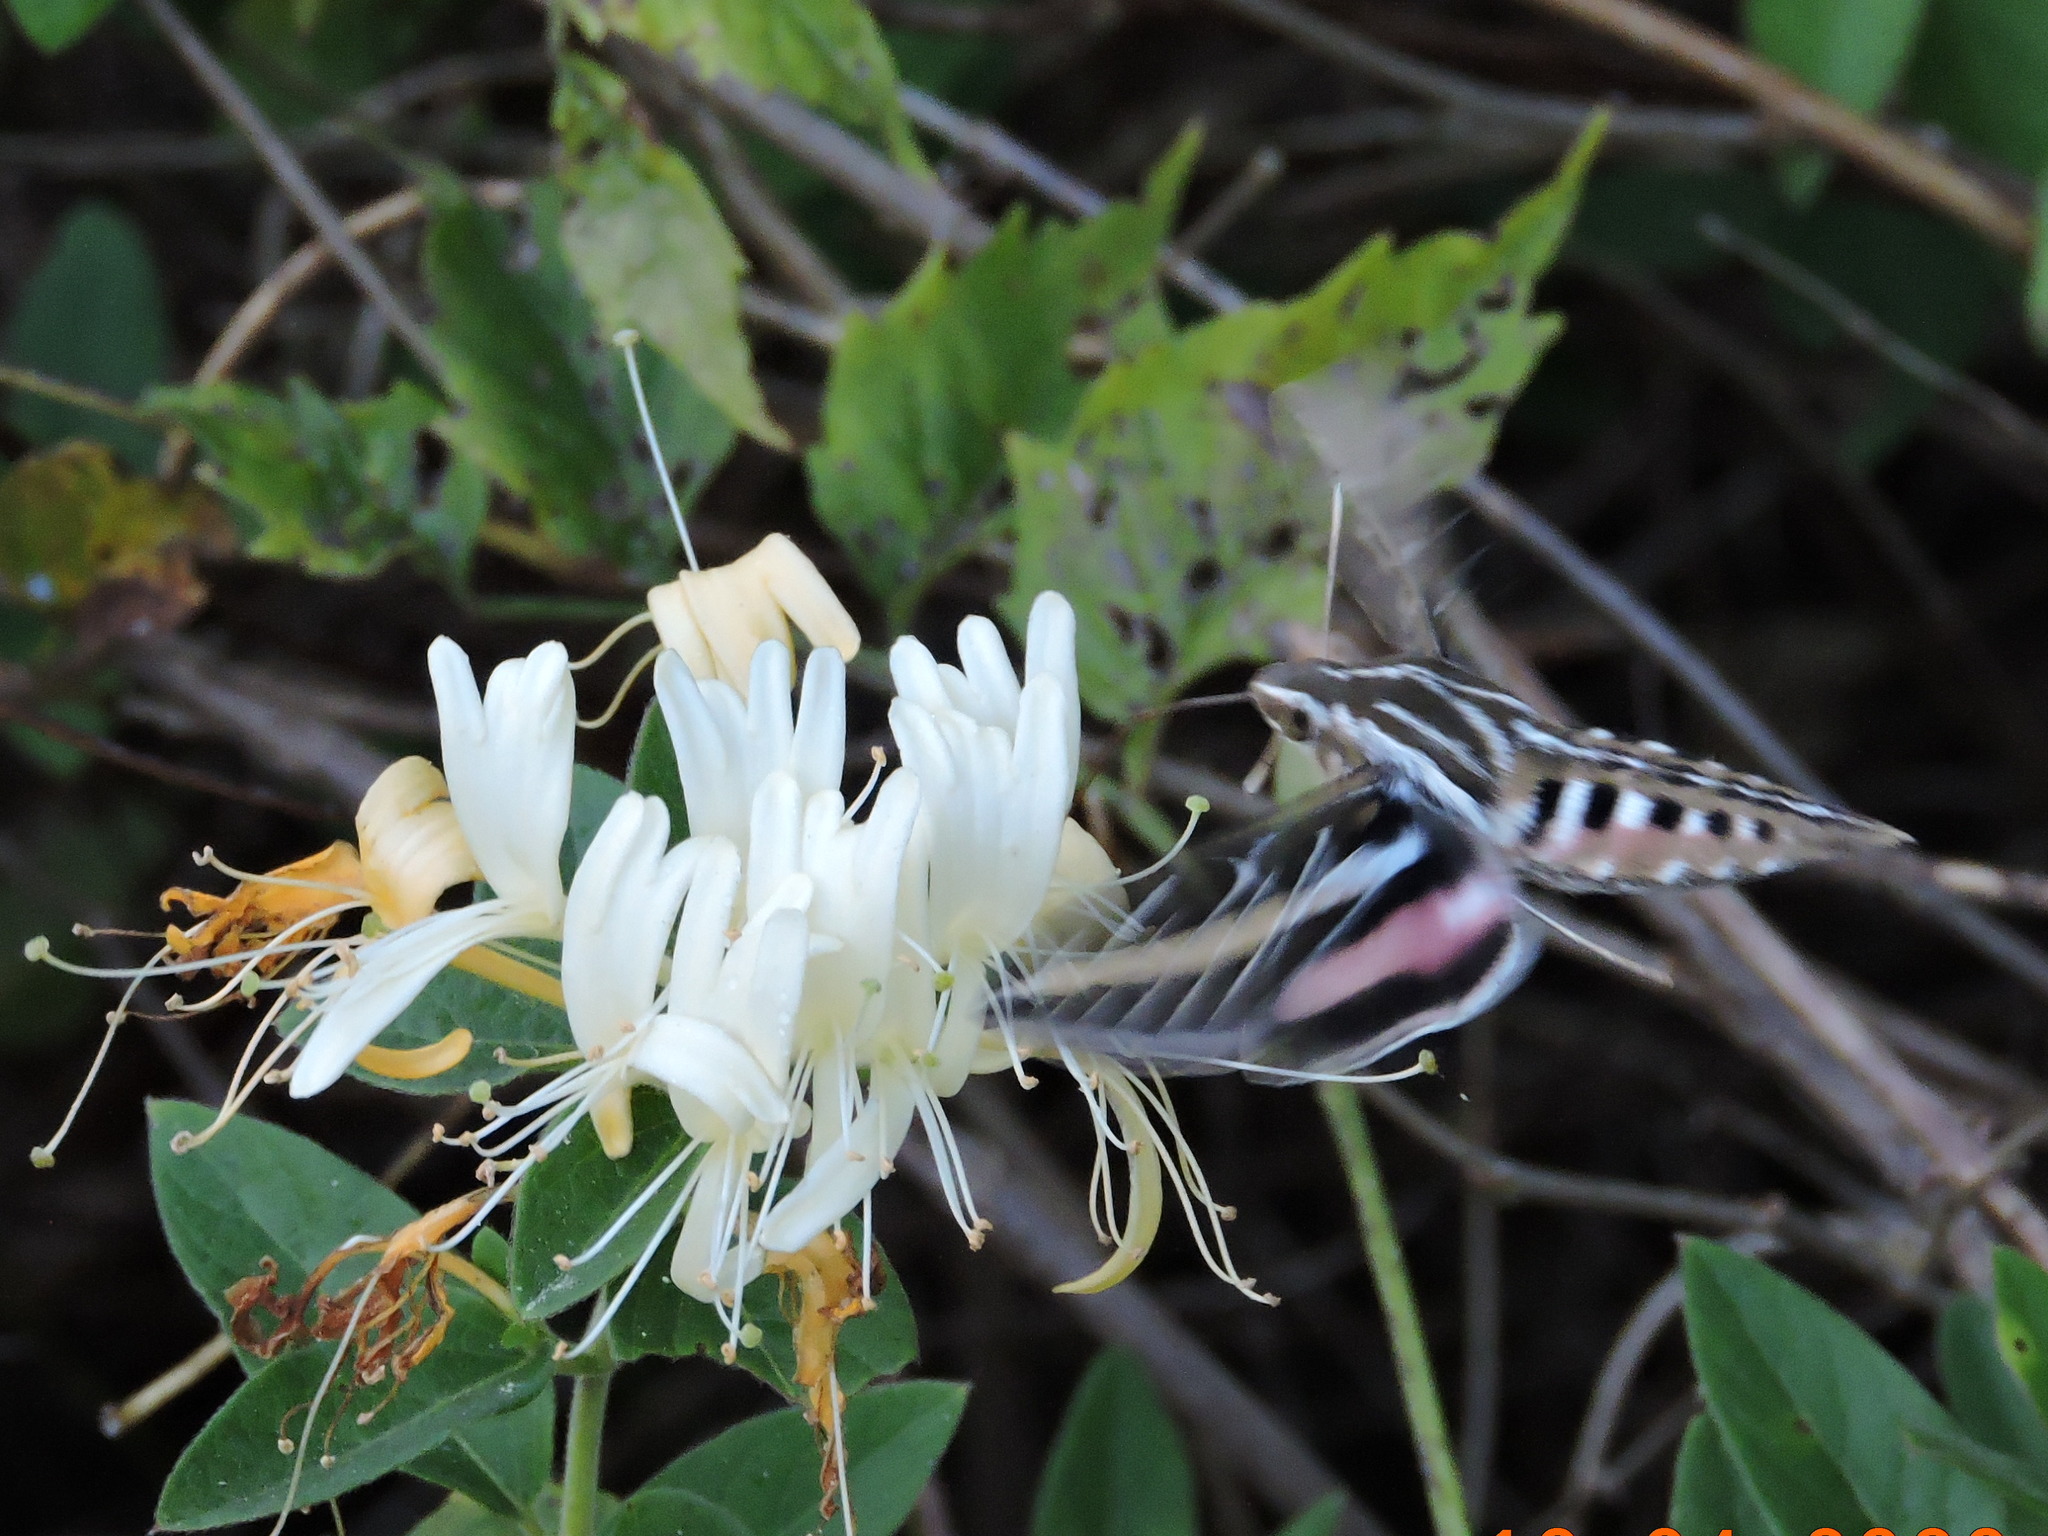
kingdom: Animalia
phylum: Arthropoda
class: Insecta
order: Lepidoptera
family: Sphingidae
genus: Hyles
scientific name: Hyles lineata
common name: White-lined sphinx
